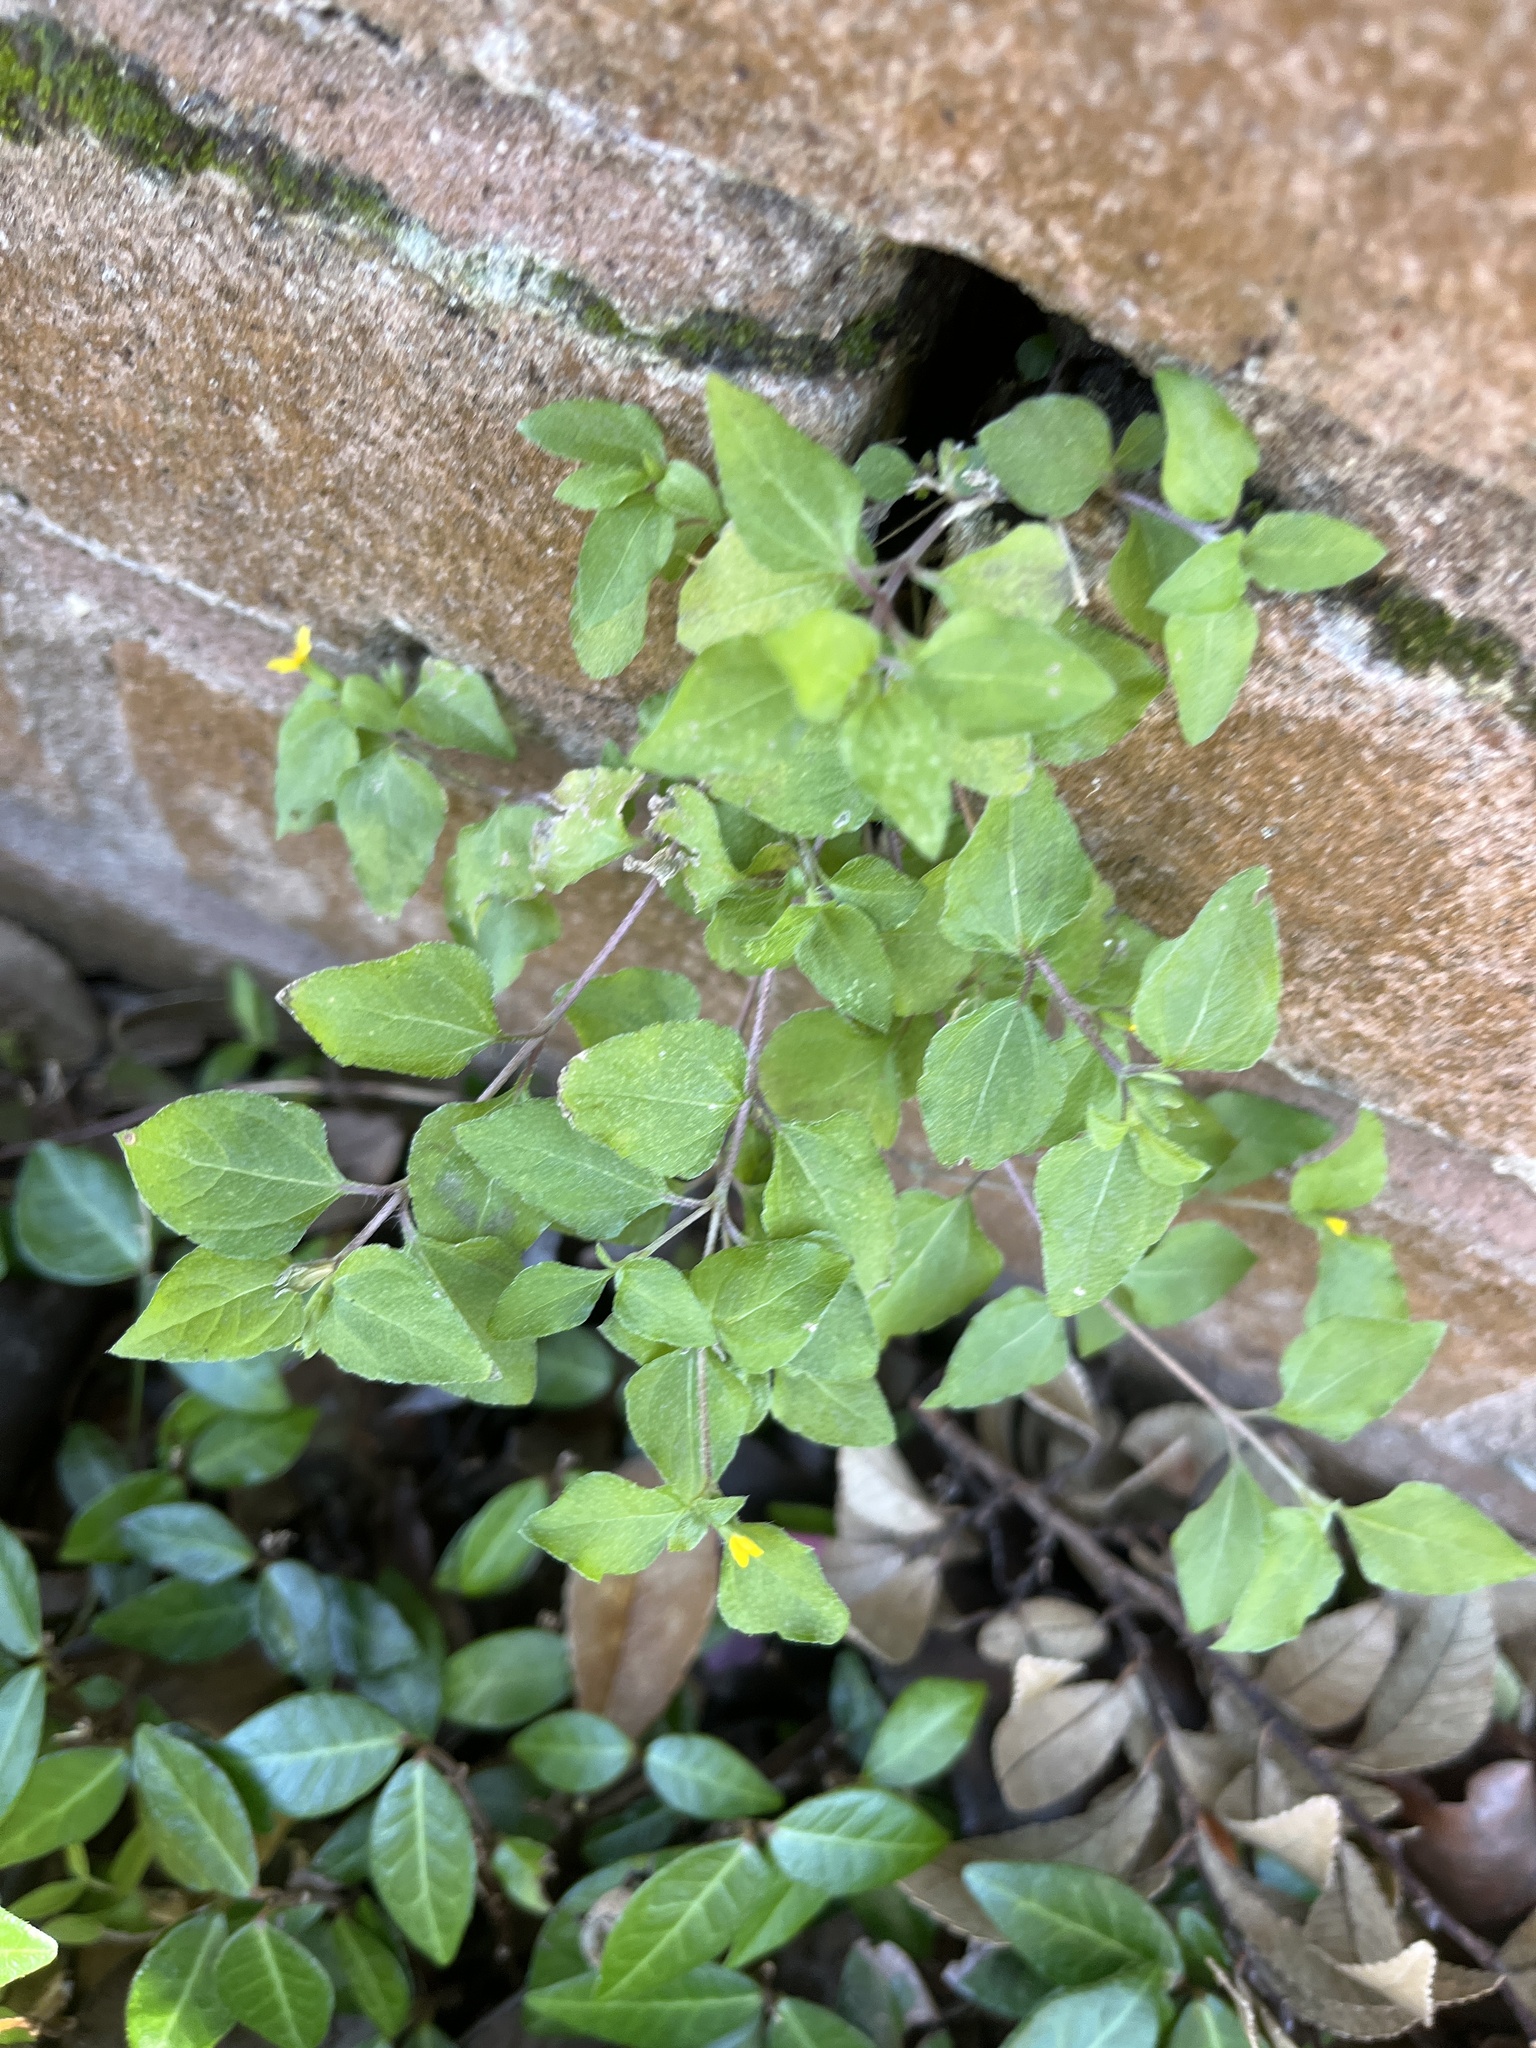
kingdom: Plantae
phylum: Tracheophyta
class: Magnoliopsida
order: Asterales
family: Asteraceae
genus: Calyptocarpus
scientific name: Calyptocarpus vialis
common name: Straggler daisy
